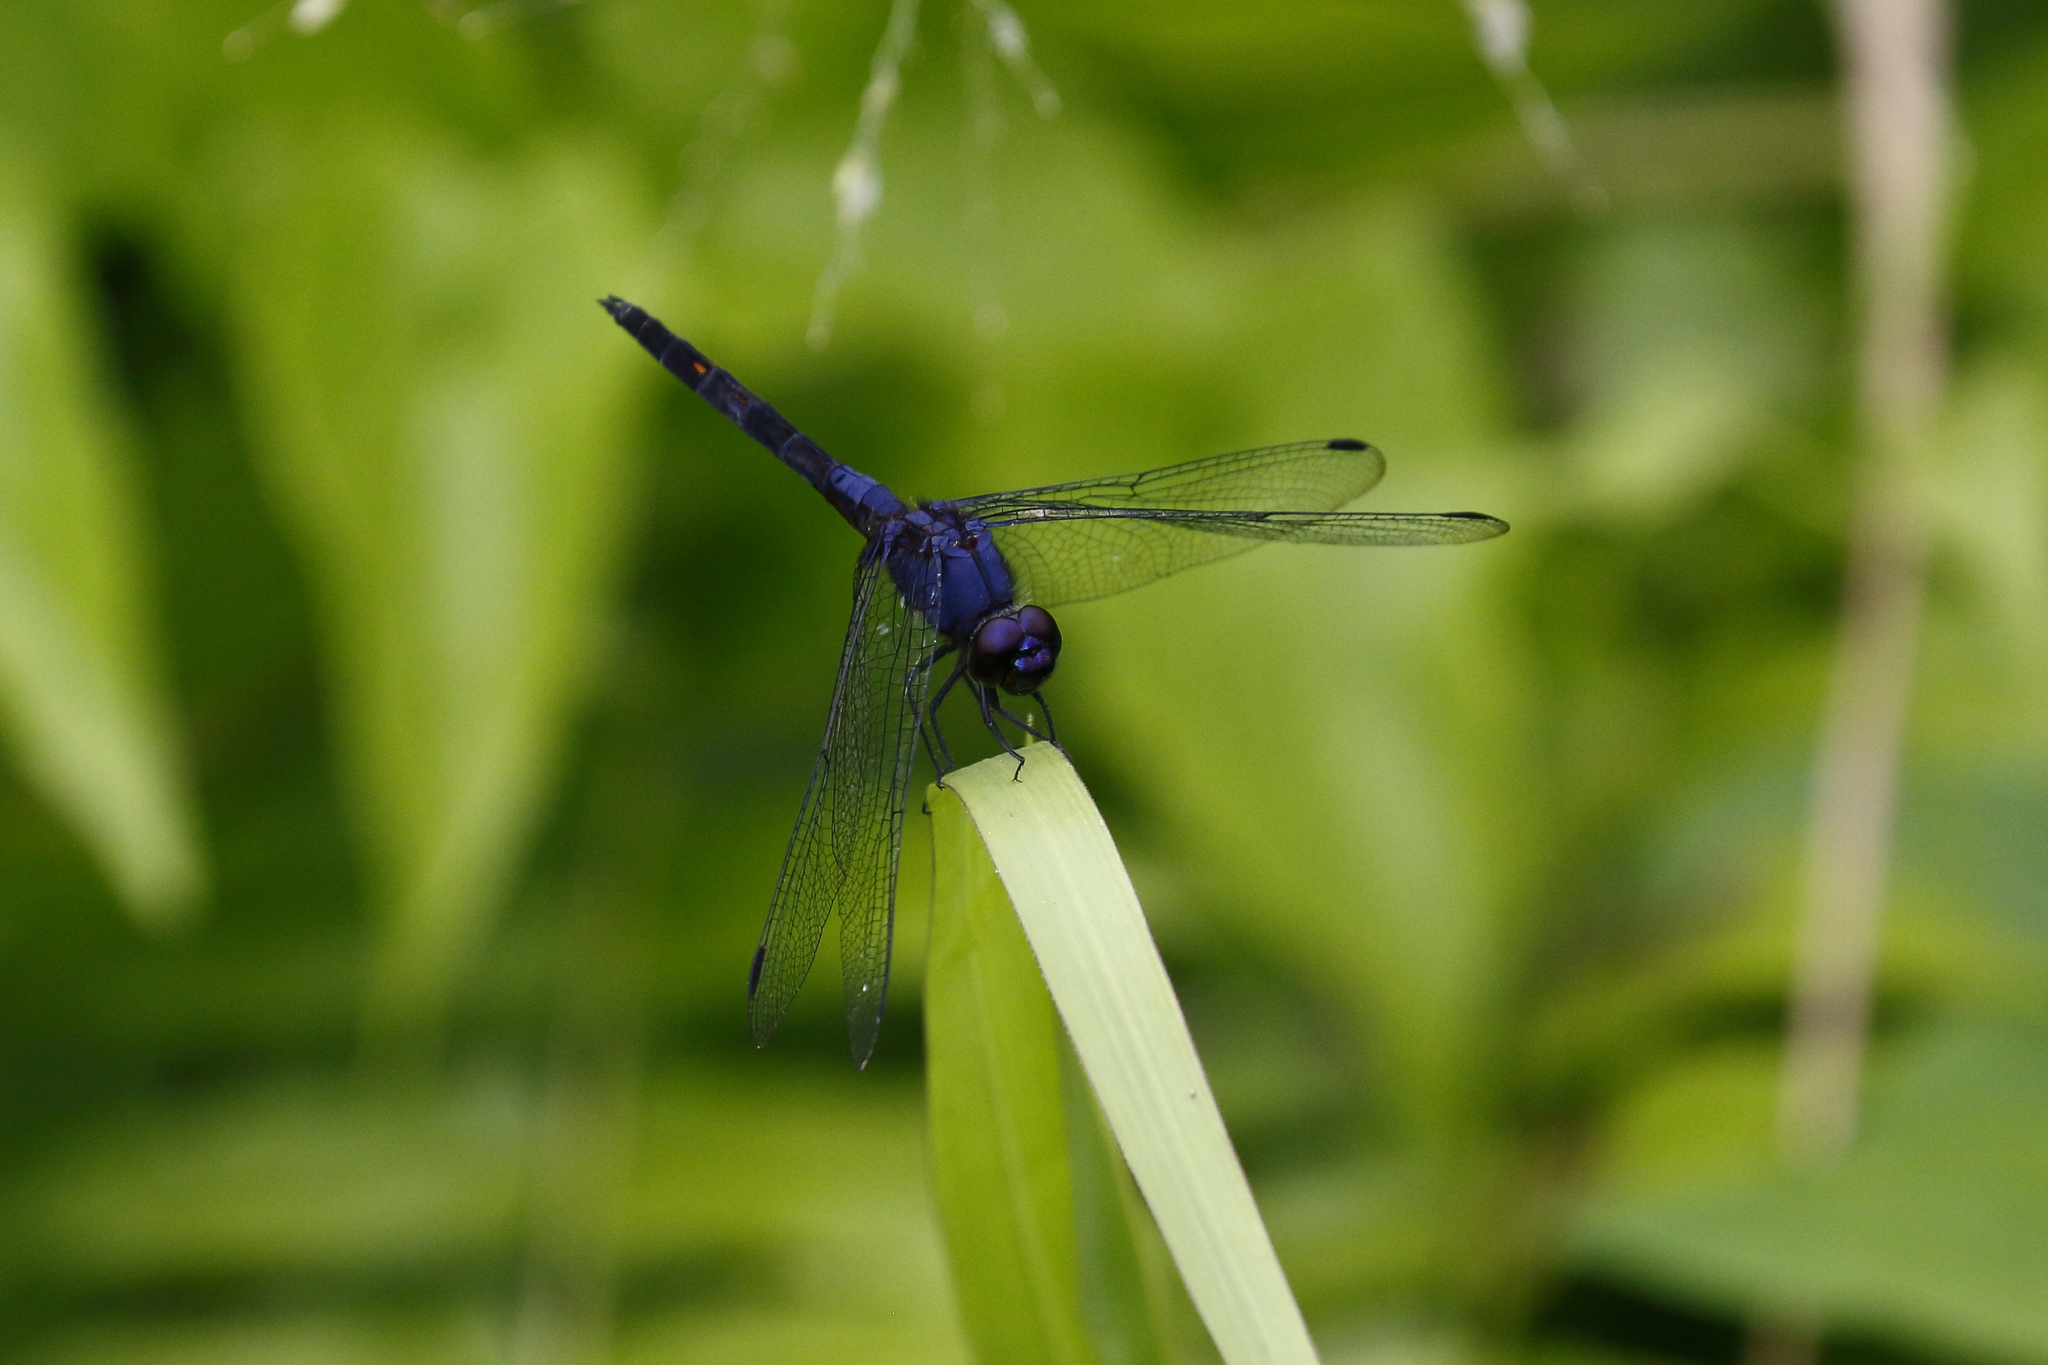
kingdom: Animalia
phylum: Arthropoda
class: Insecta
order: Odonata
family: Libellulidae
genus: Trithemis
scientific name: Trithemis festiva
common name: Indigo dropwing
